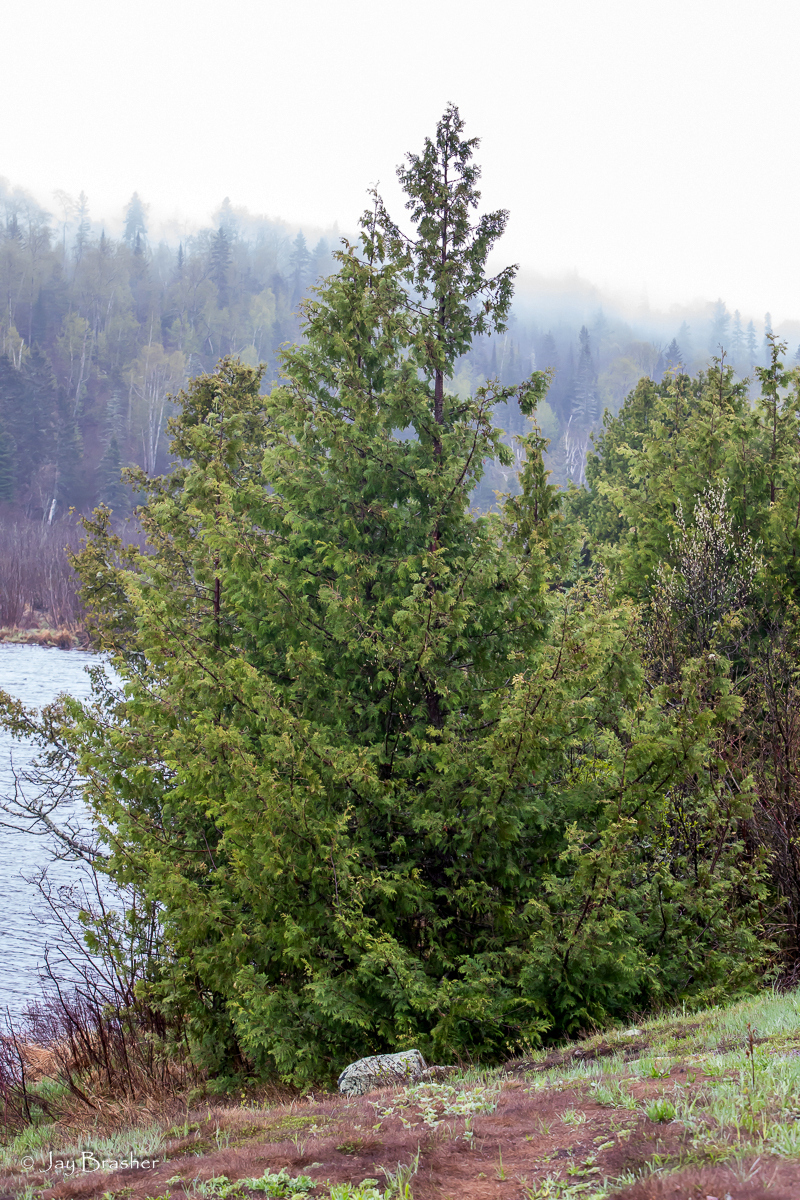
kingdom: Plantae
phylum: Tracheophyta
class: Pinopsida
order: Pinales
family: Cupressaceae
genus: Thuja
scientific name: Thuja occidentalis
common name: Northern white-cedar
